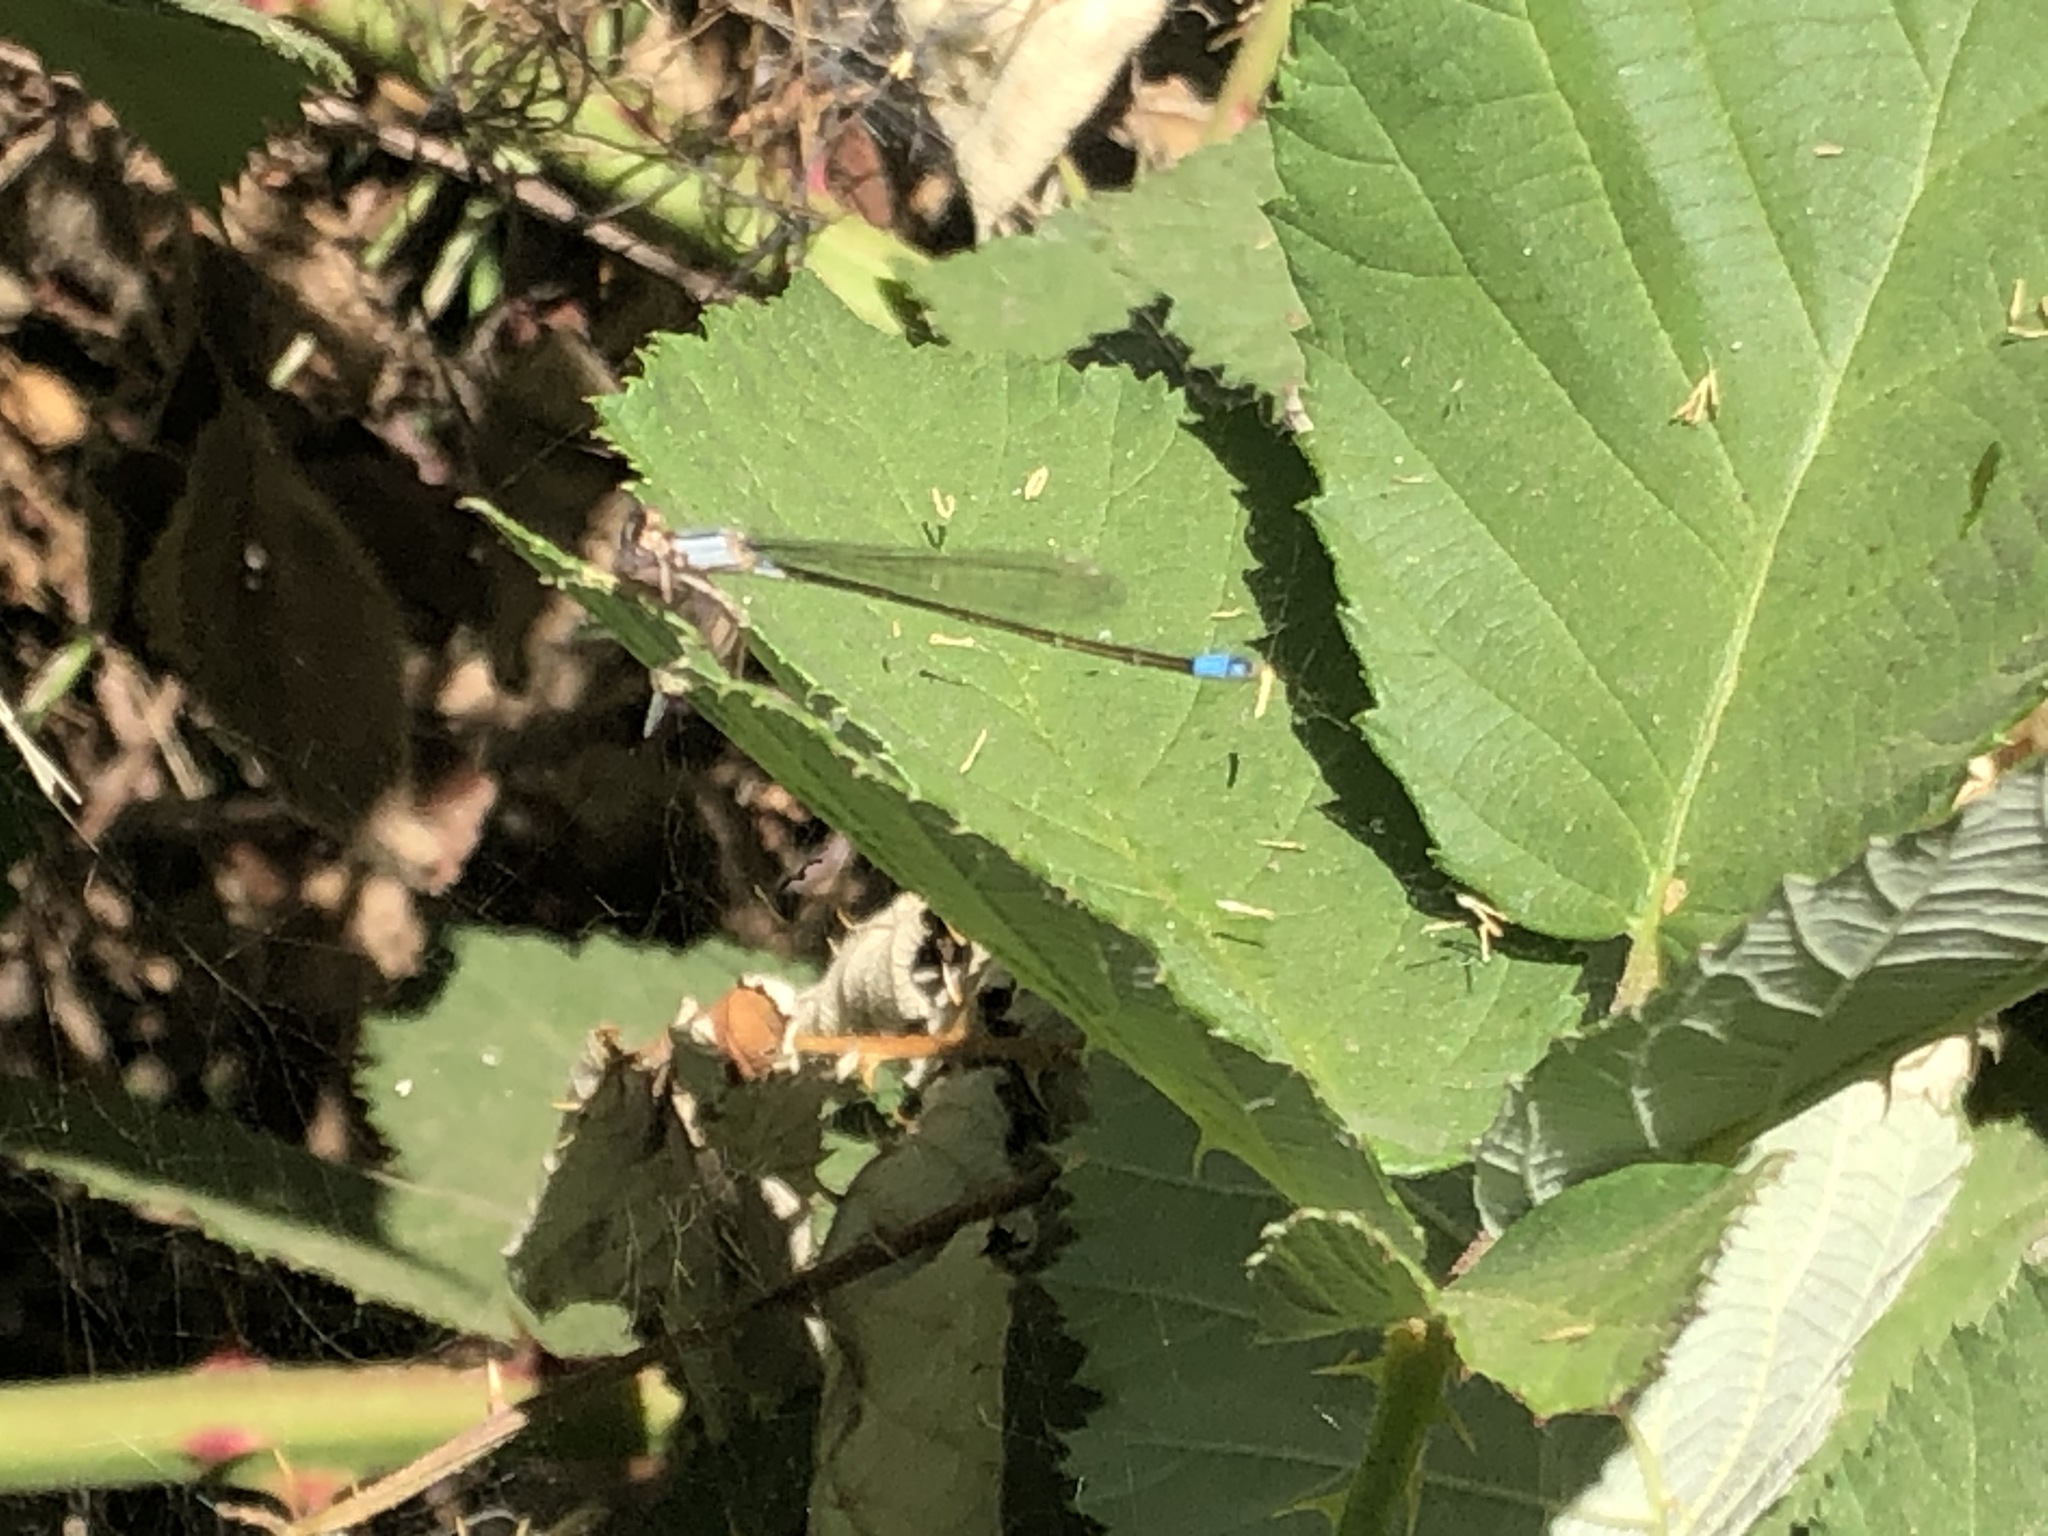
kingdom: Animalia
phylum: Arthropoda
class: Insecta
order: Odonata
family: Coenagrionidae
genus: Ischnura
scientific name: Ischnura cervula
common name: Pacific forktail
